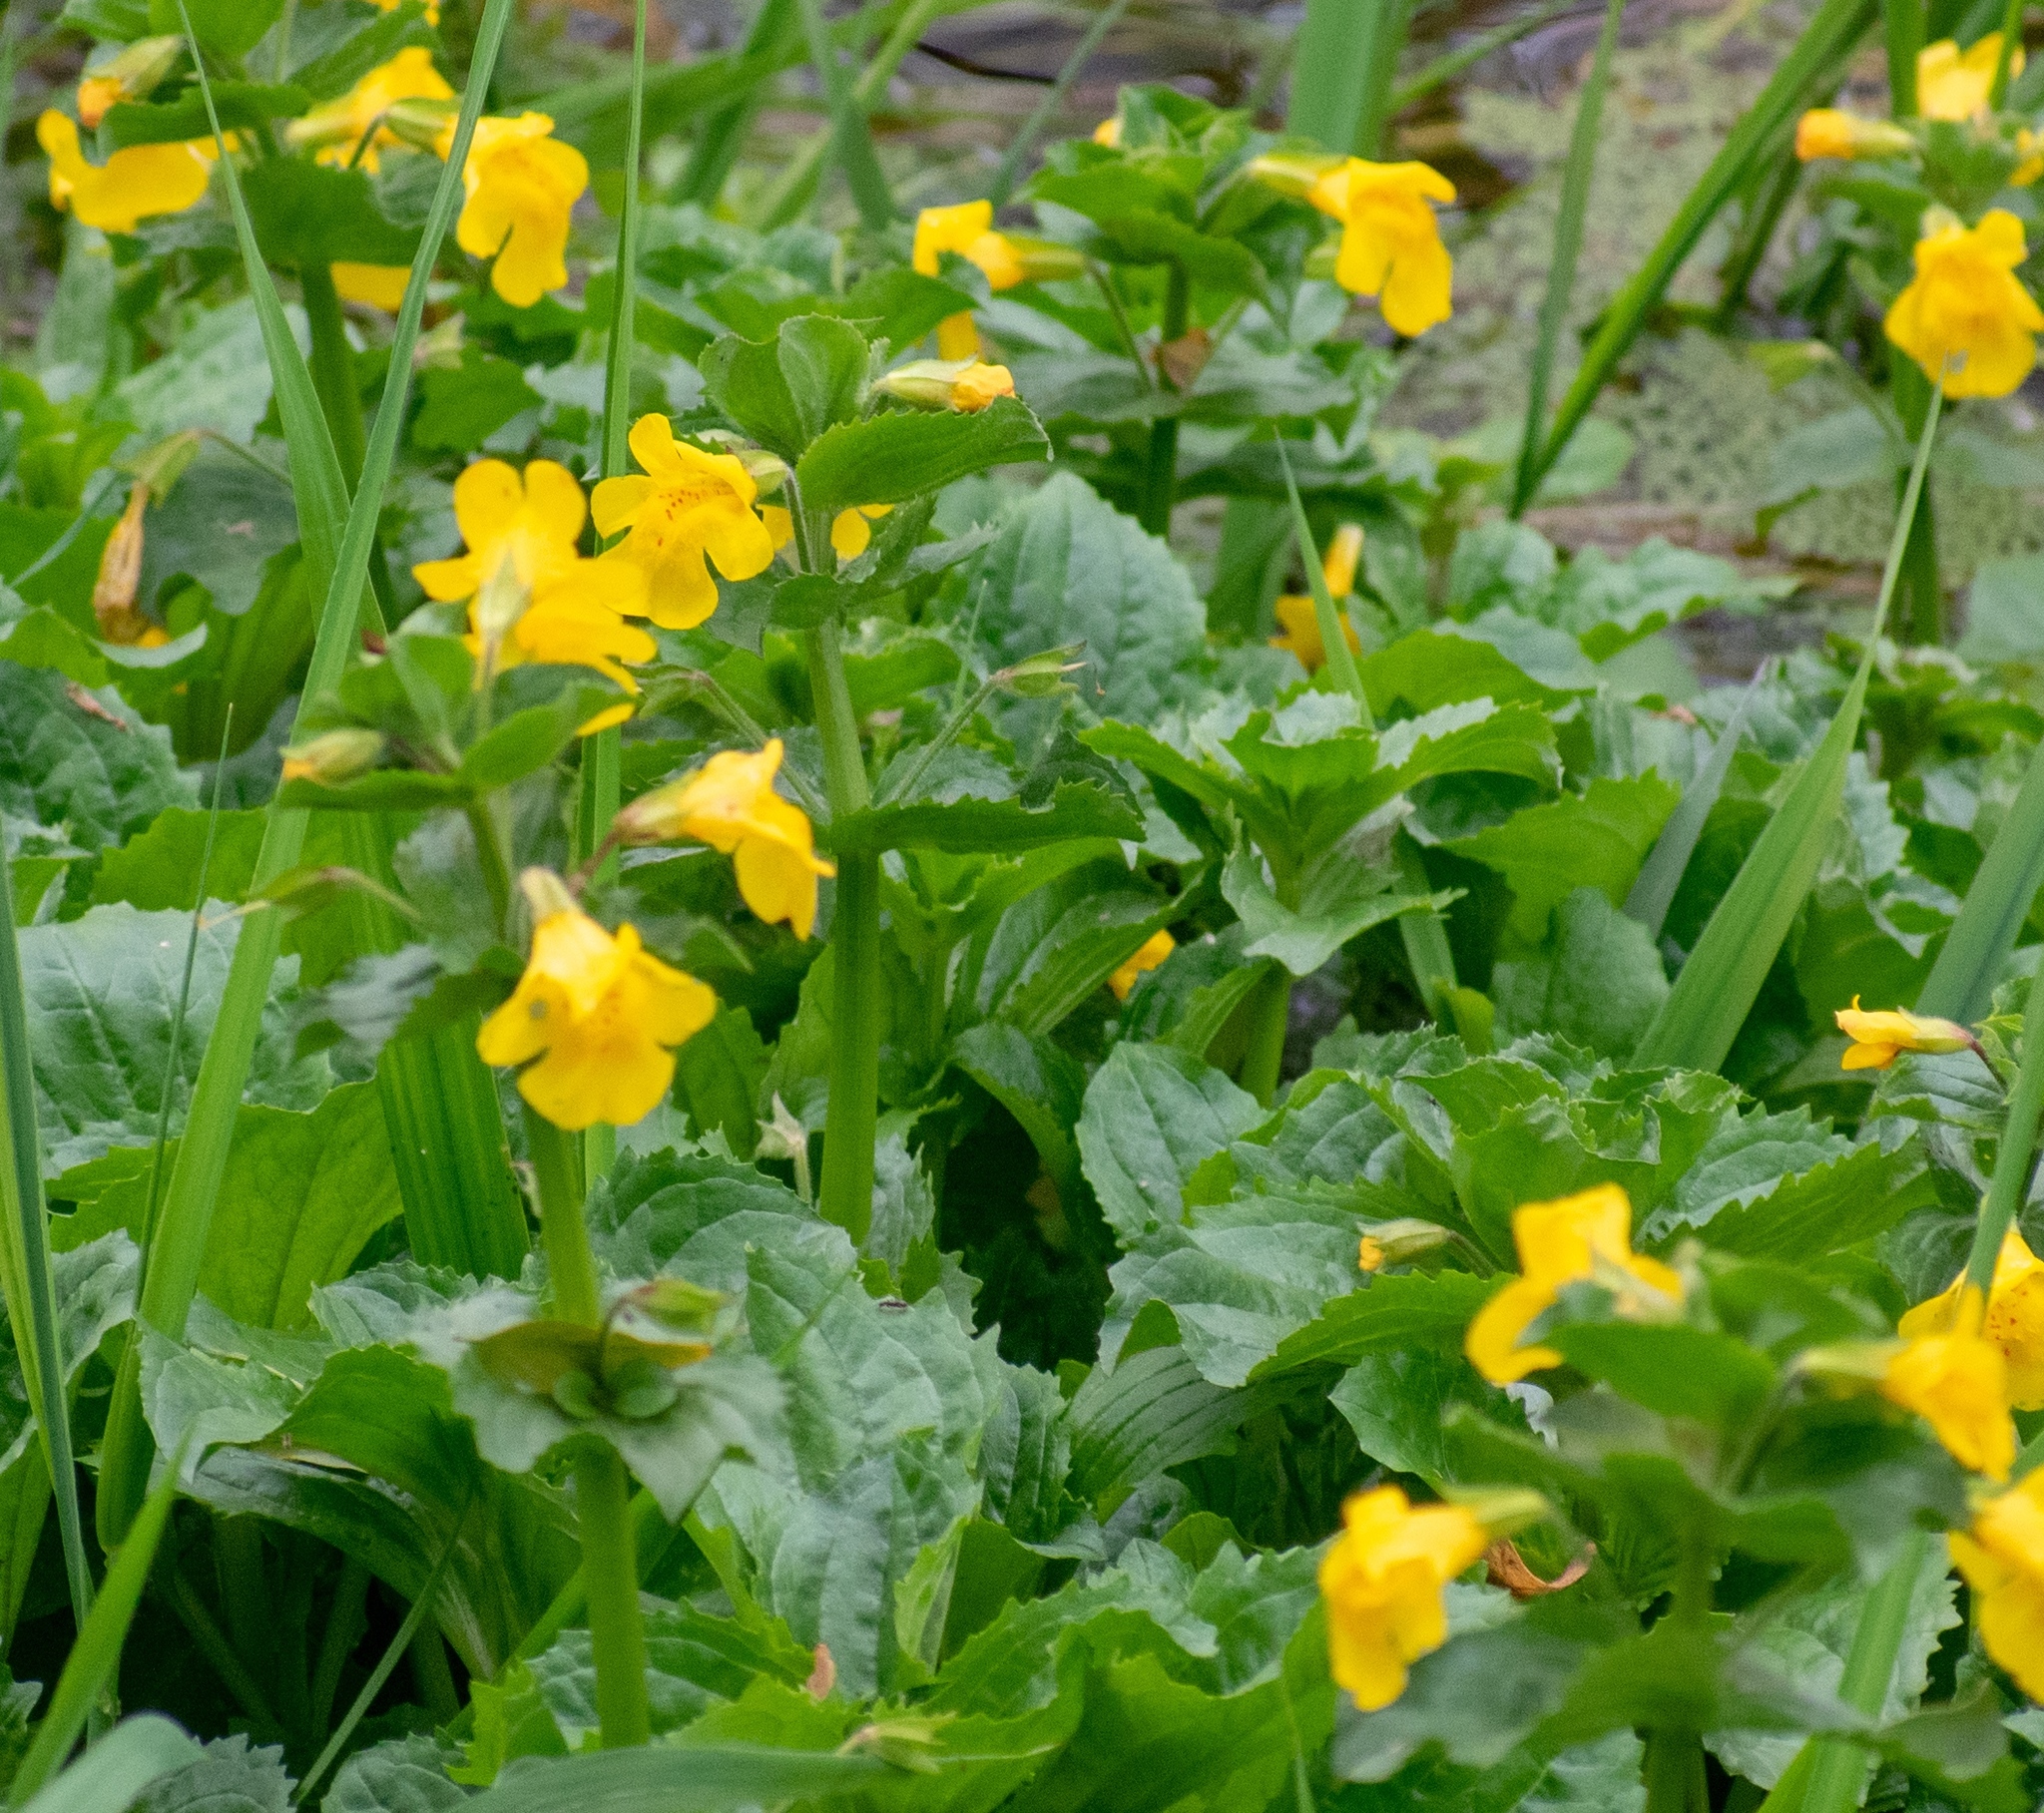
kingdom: Plantae
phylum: Tracheophyta
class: Magnoliopsida
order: Lamiales
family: Phrymaceae
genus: Erythranthe
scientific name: Erythranthe guttata
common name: Monkeyflower
